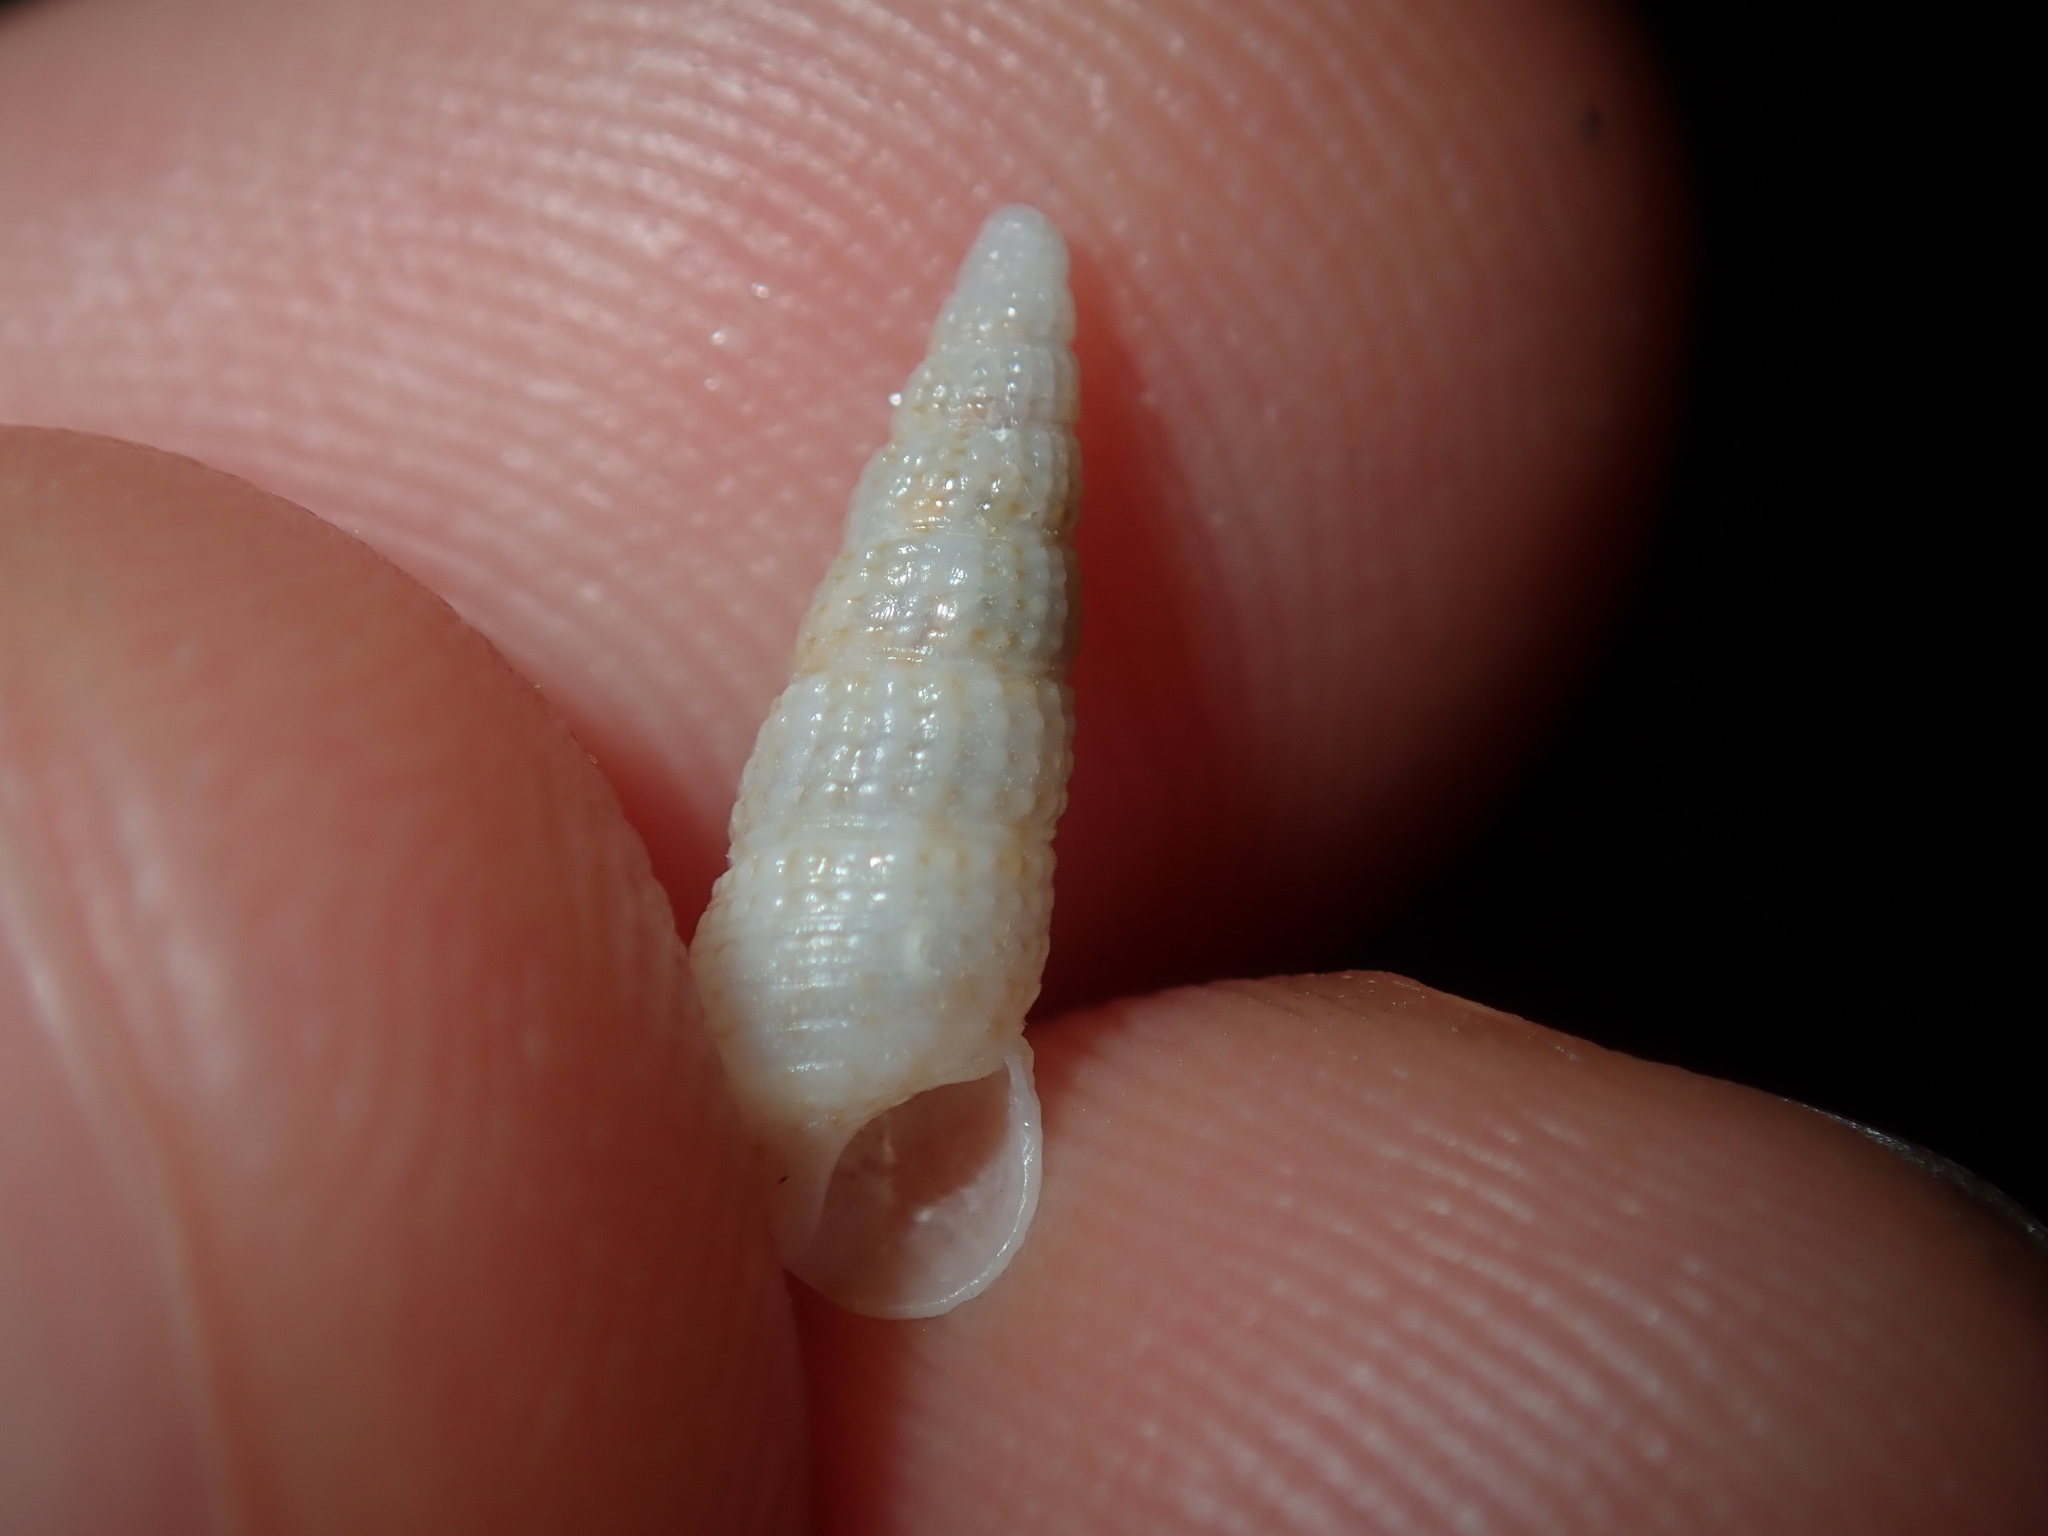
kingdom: Animalia
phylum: Mollusca
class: Gastropoda
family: Cerithiidae
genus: Cacozeliana
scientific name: Cacozeliana granarium
